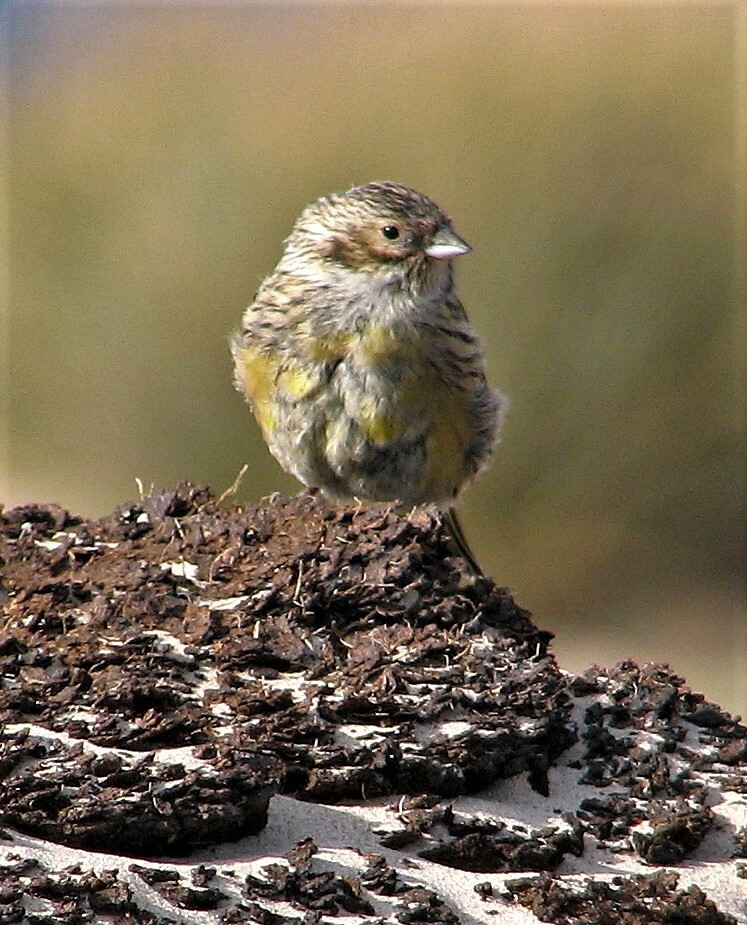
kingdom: Animalia
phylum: Chordata
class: Aves
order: Passeriformes
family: Thraupidae
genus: Melanodera
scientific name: Melanodera melanodera
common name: White-bridled finch
